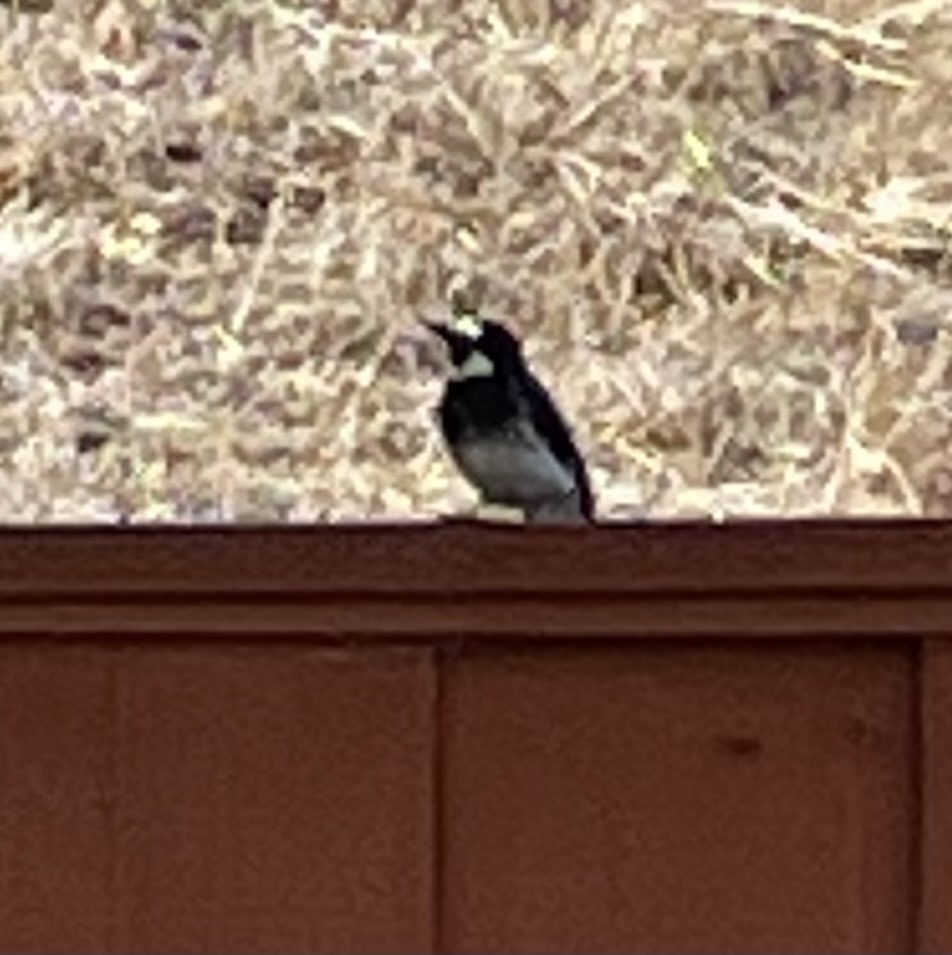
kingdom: Animalia
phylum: Chordata
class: Aves
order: Piciformes
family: Picidae
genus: Melanerpes
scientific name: Melanerpes formicivorus
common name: Acorn woodpecker
